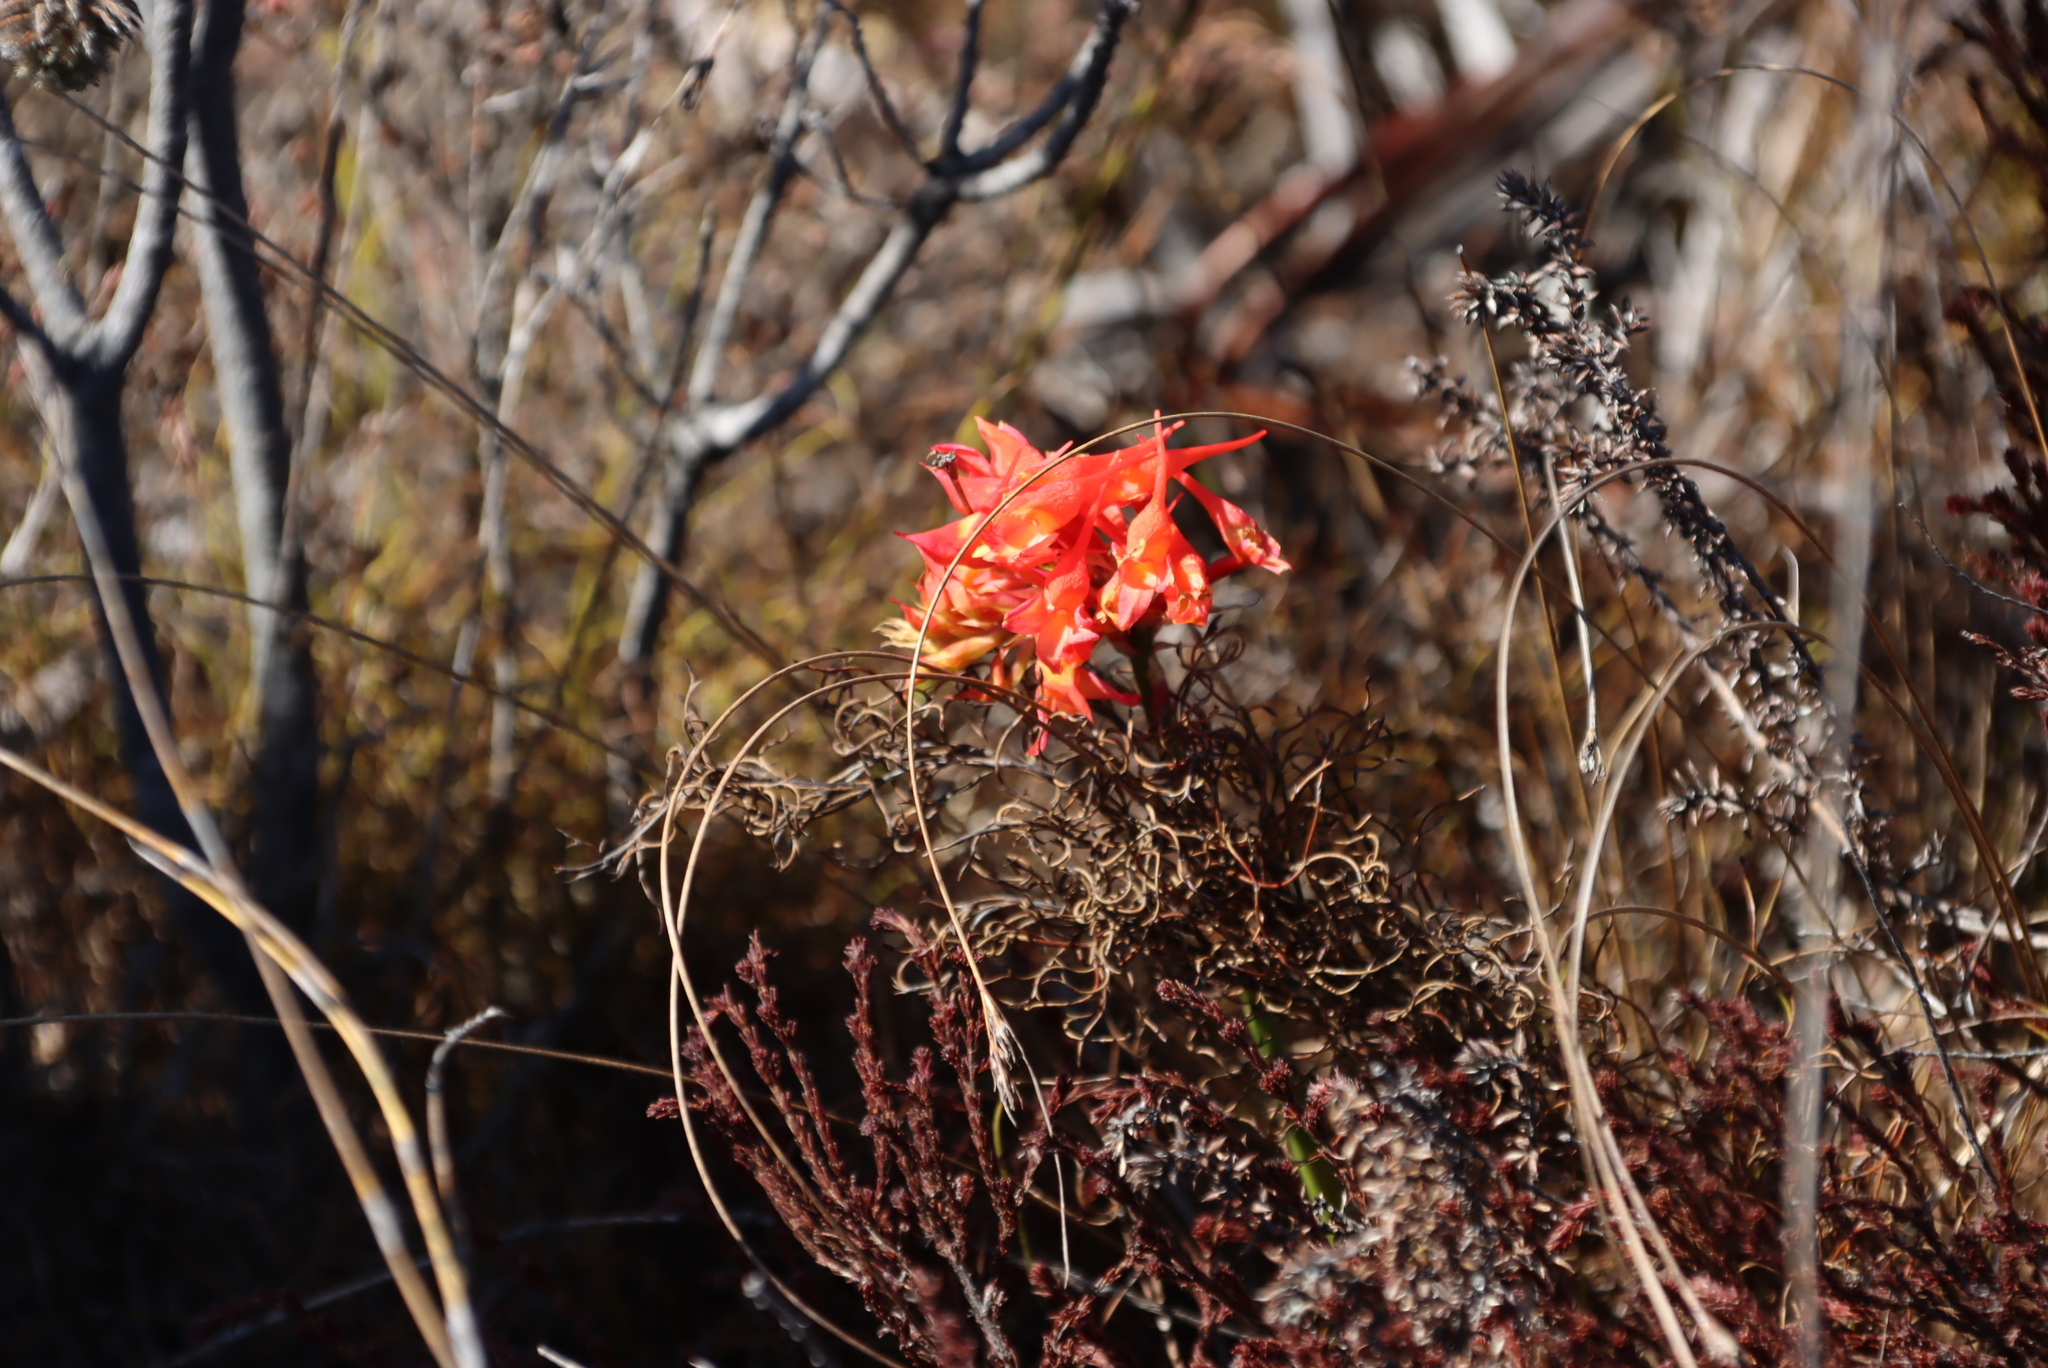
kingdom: Plantae
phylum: Tracheophyta
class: Liliopsida
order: Asparagales
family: Orchidaceae
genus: Disa
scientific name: Disa ferruginea
